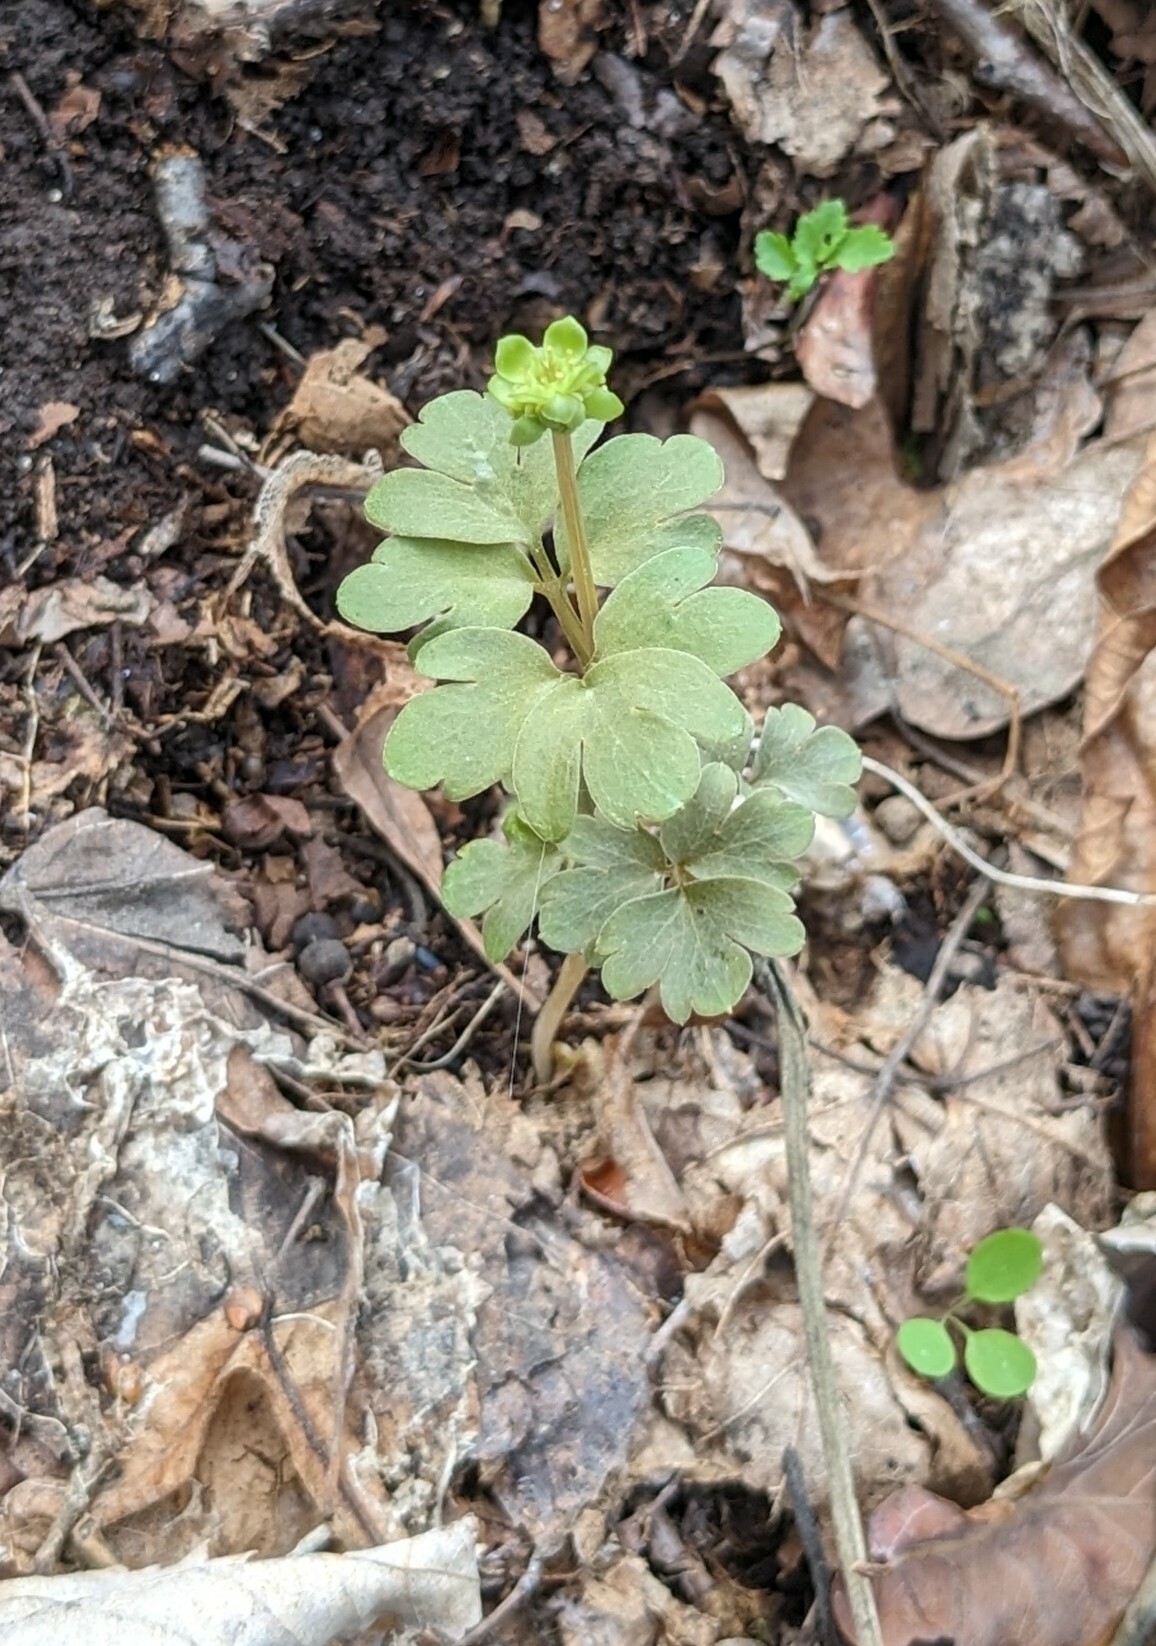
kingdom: Plantae
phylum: Tracheophyta
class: Magnoliopsida
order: Dipsacales
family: Viburnaceae
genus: Adoxa
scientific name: Adoxa moschatellina
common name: Moschatel
